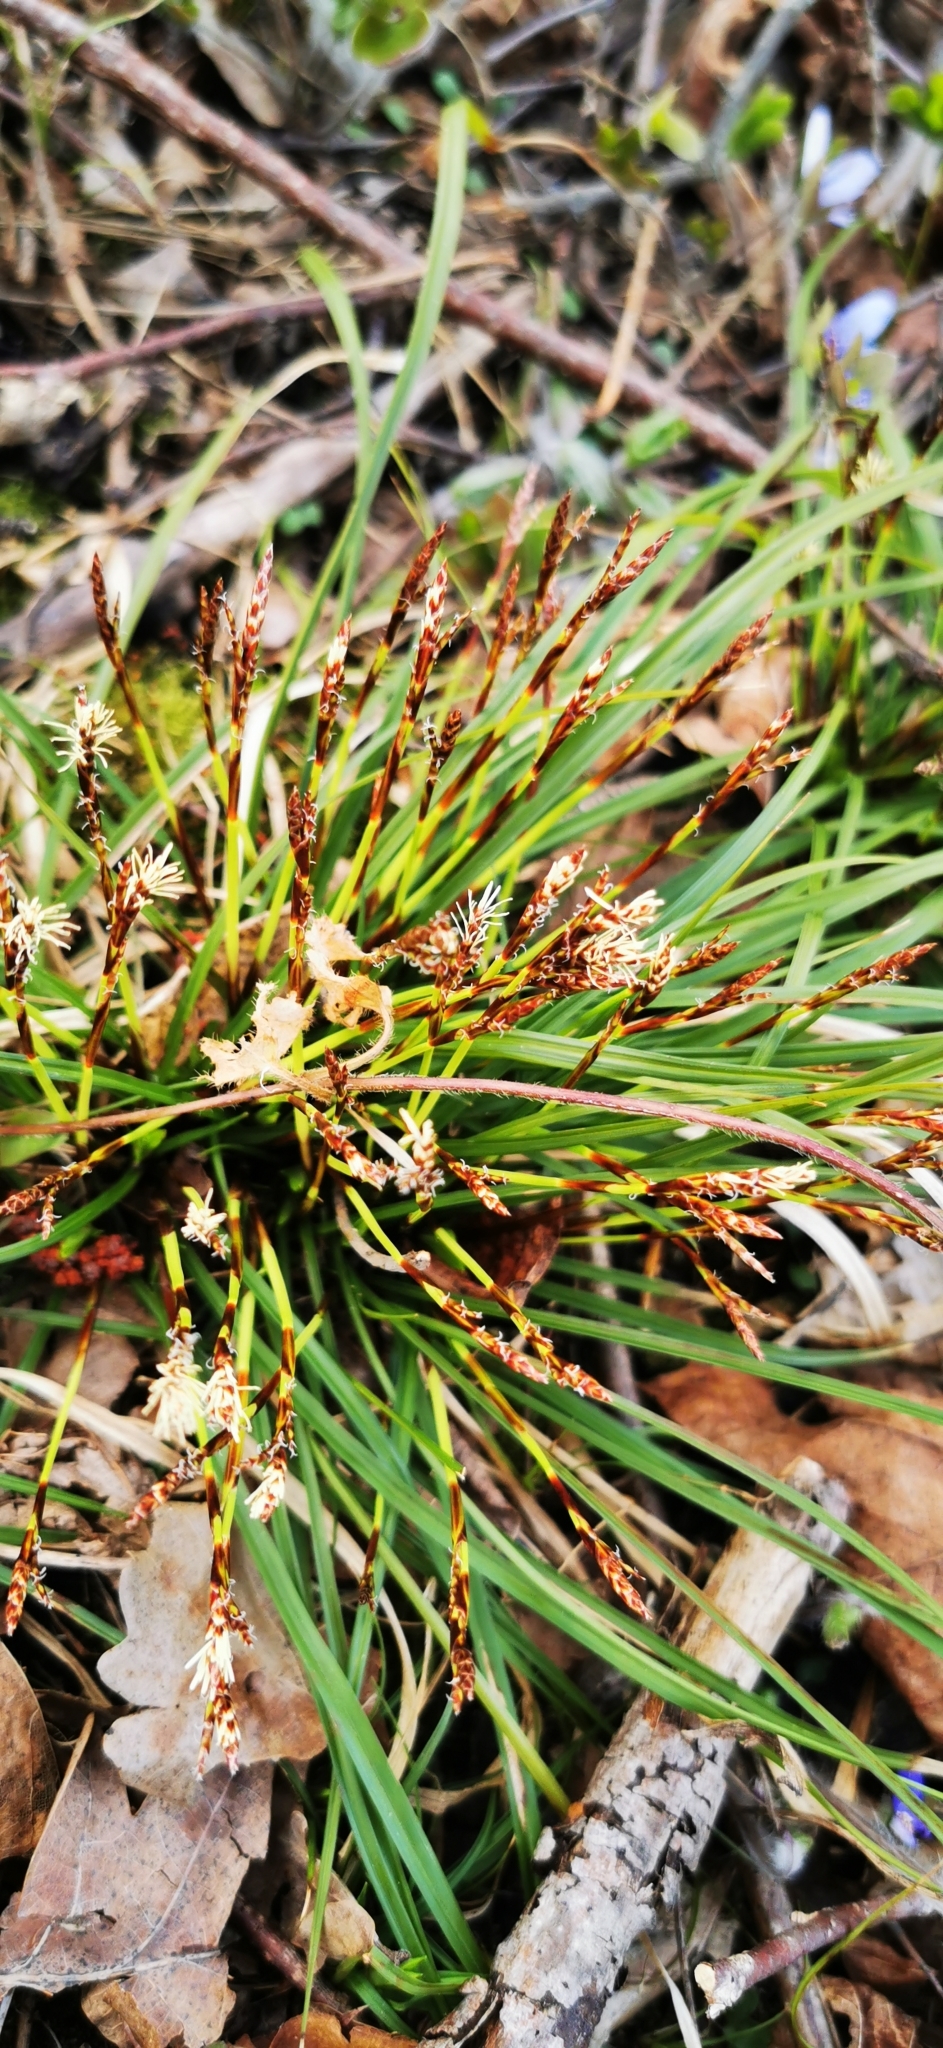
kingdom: Plantae
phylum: Tracheophyta
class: Liliopsida
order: Poales
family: Cyperaceae
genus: Carex
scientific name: Carex digitata
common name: Fingered sedge
